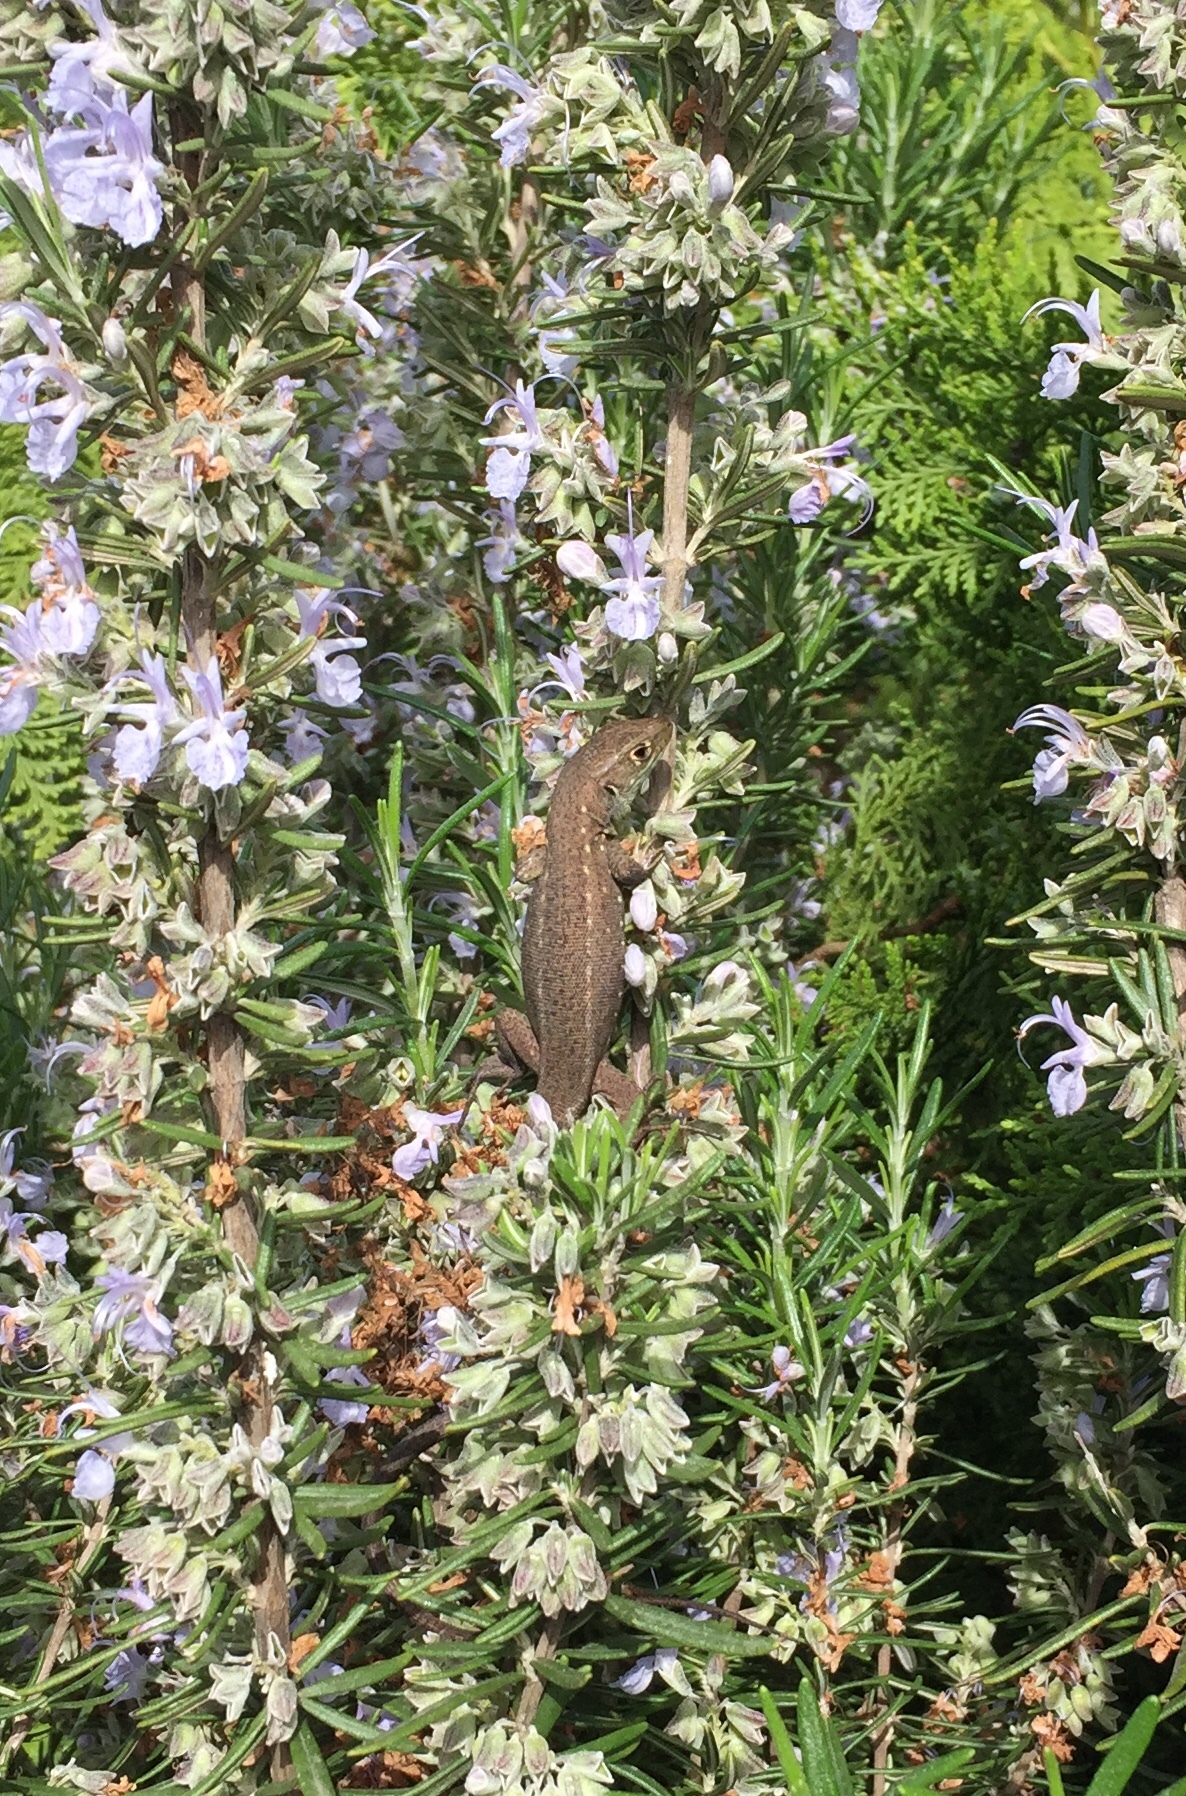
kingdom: Animalia
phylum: Chordata
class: Squamata
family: Lacertidae
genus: Lacerta
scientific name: Lacerta viridis
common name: European green lizard
